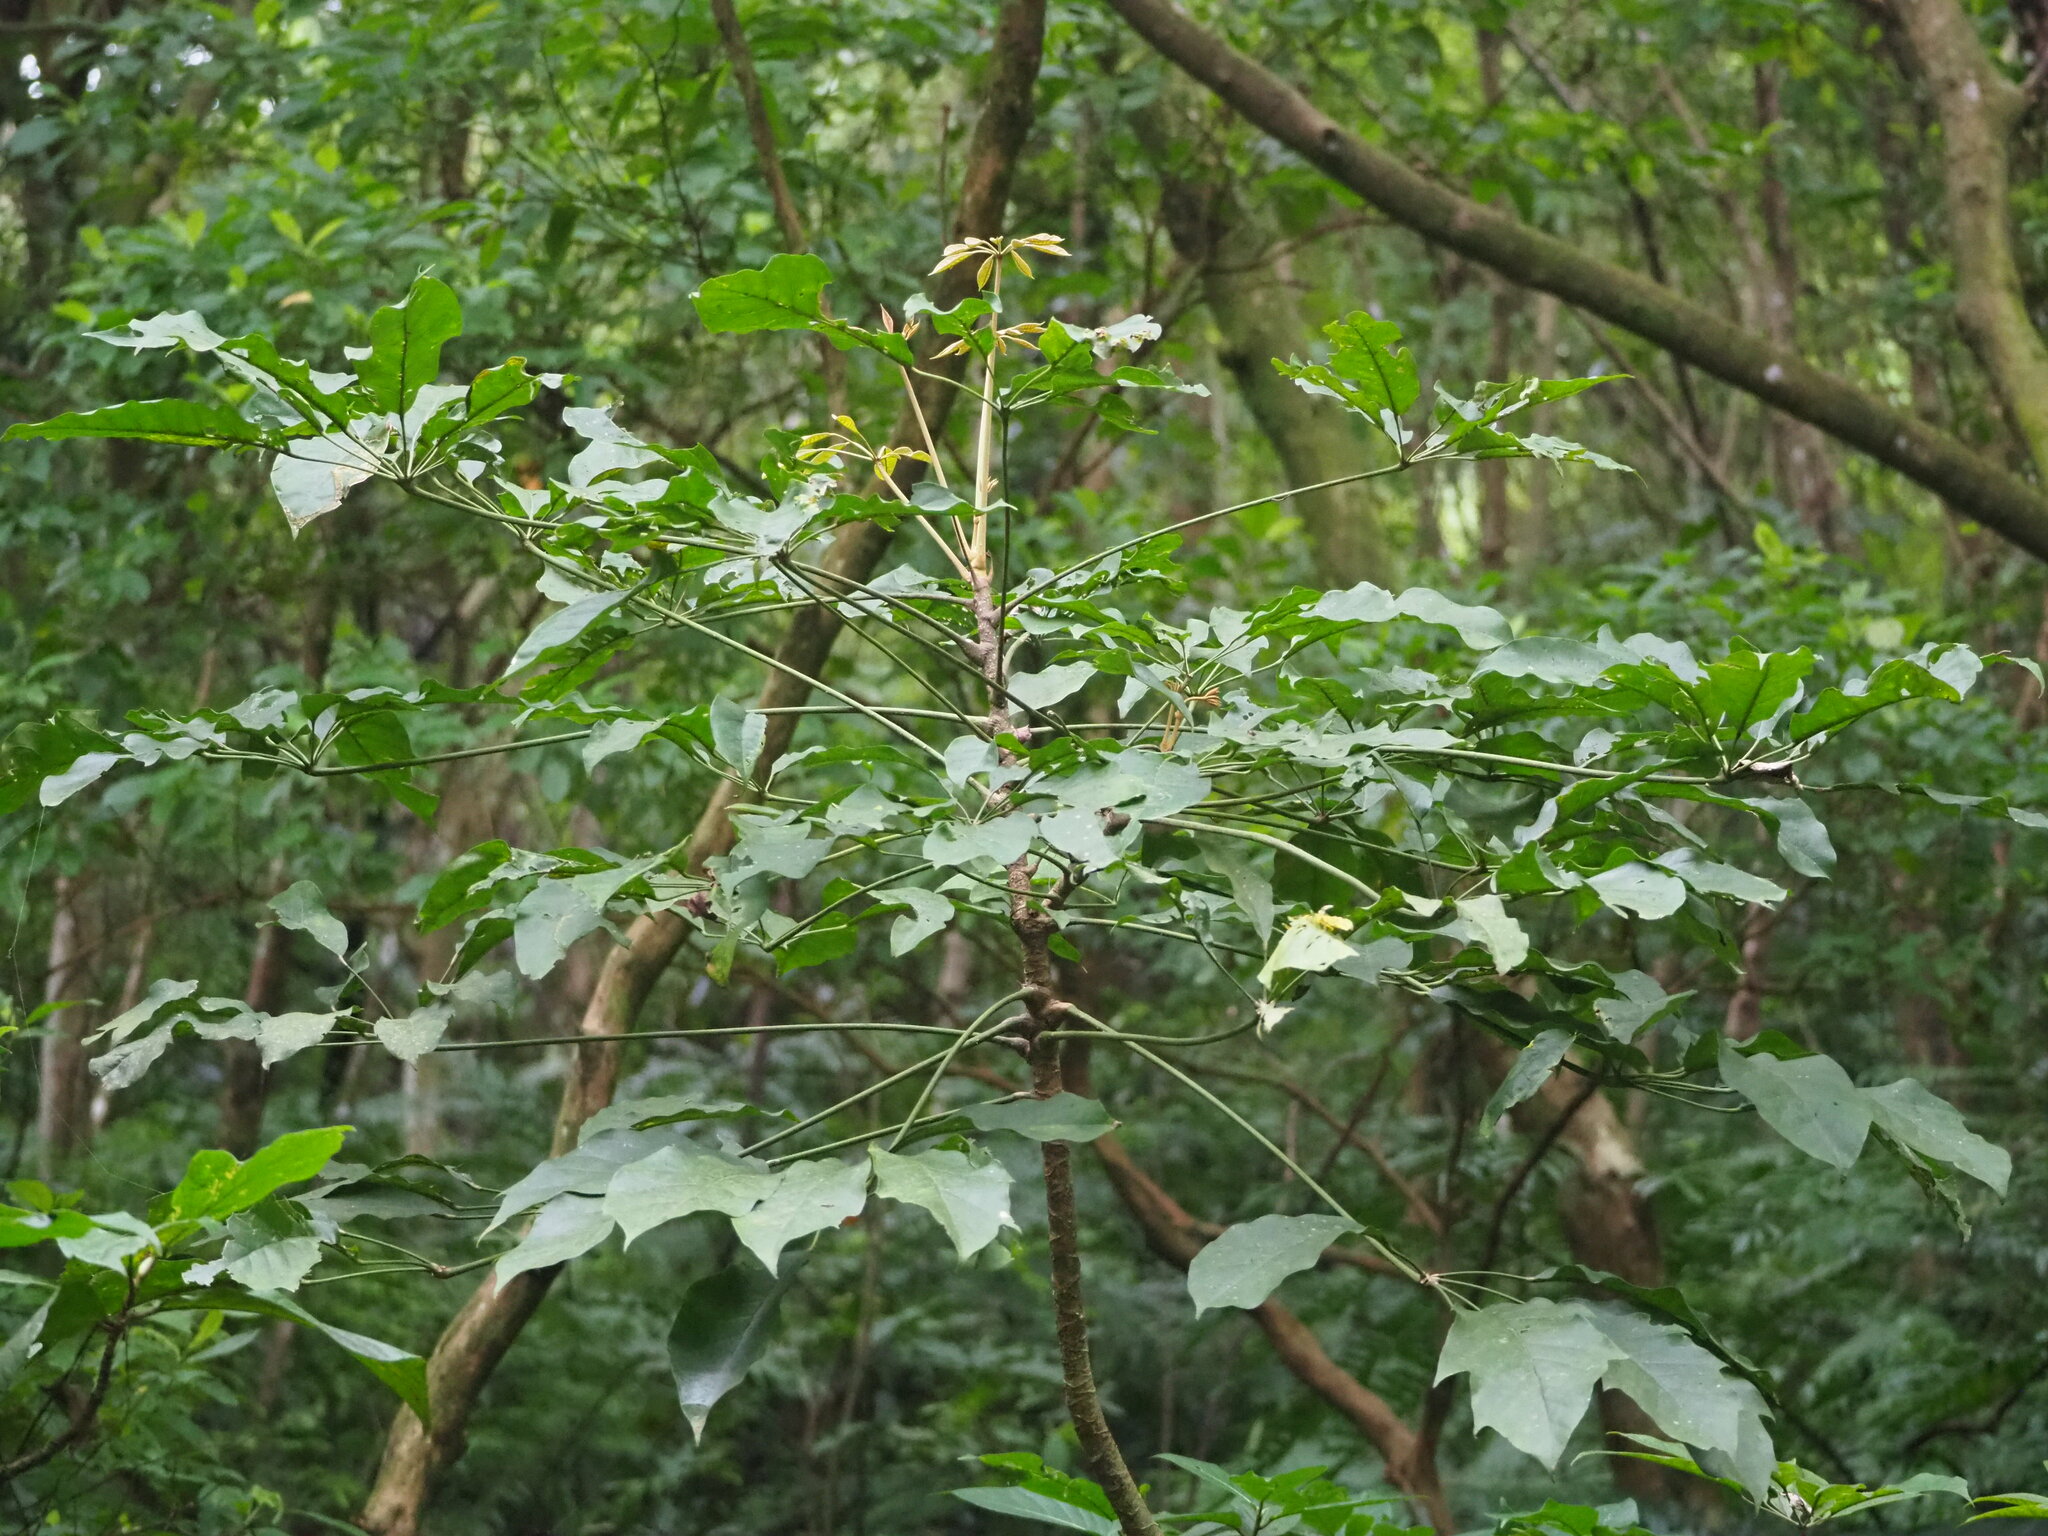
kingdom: Plantae
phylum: Tracheophyta
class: Magnoliopsida
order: Apiales
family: Araliaceae
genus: Heptapleurum
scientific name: Heptapleurum heptaphyllum
